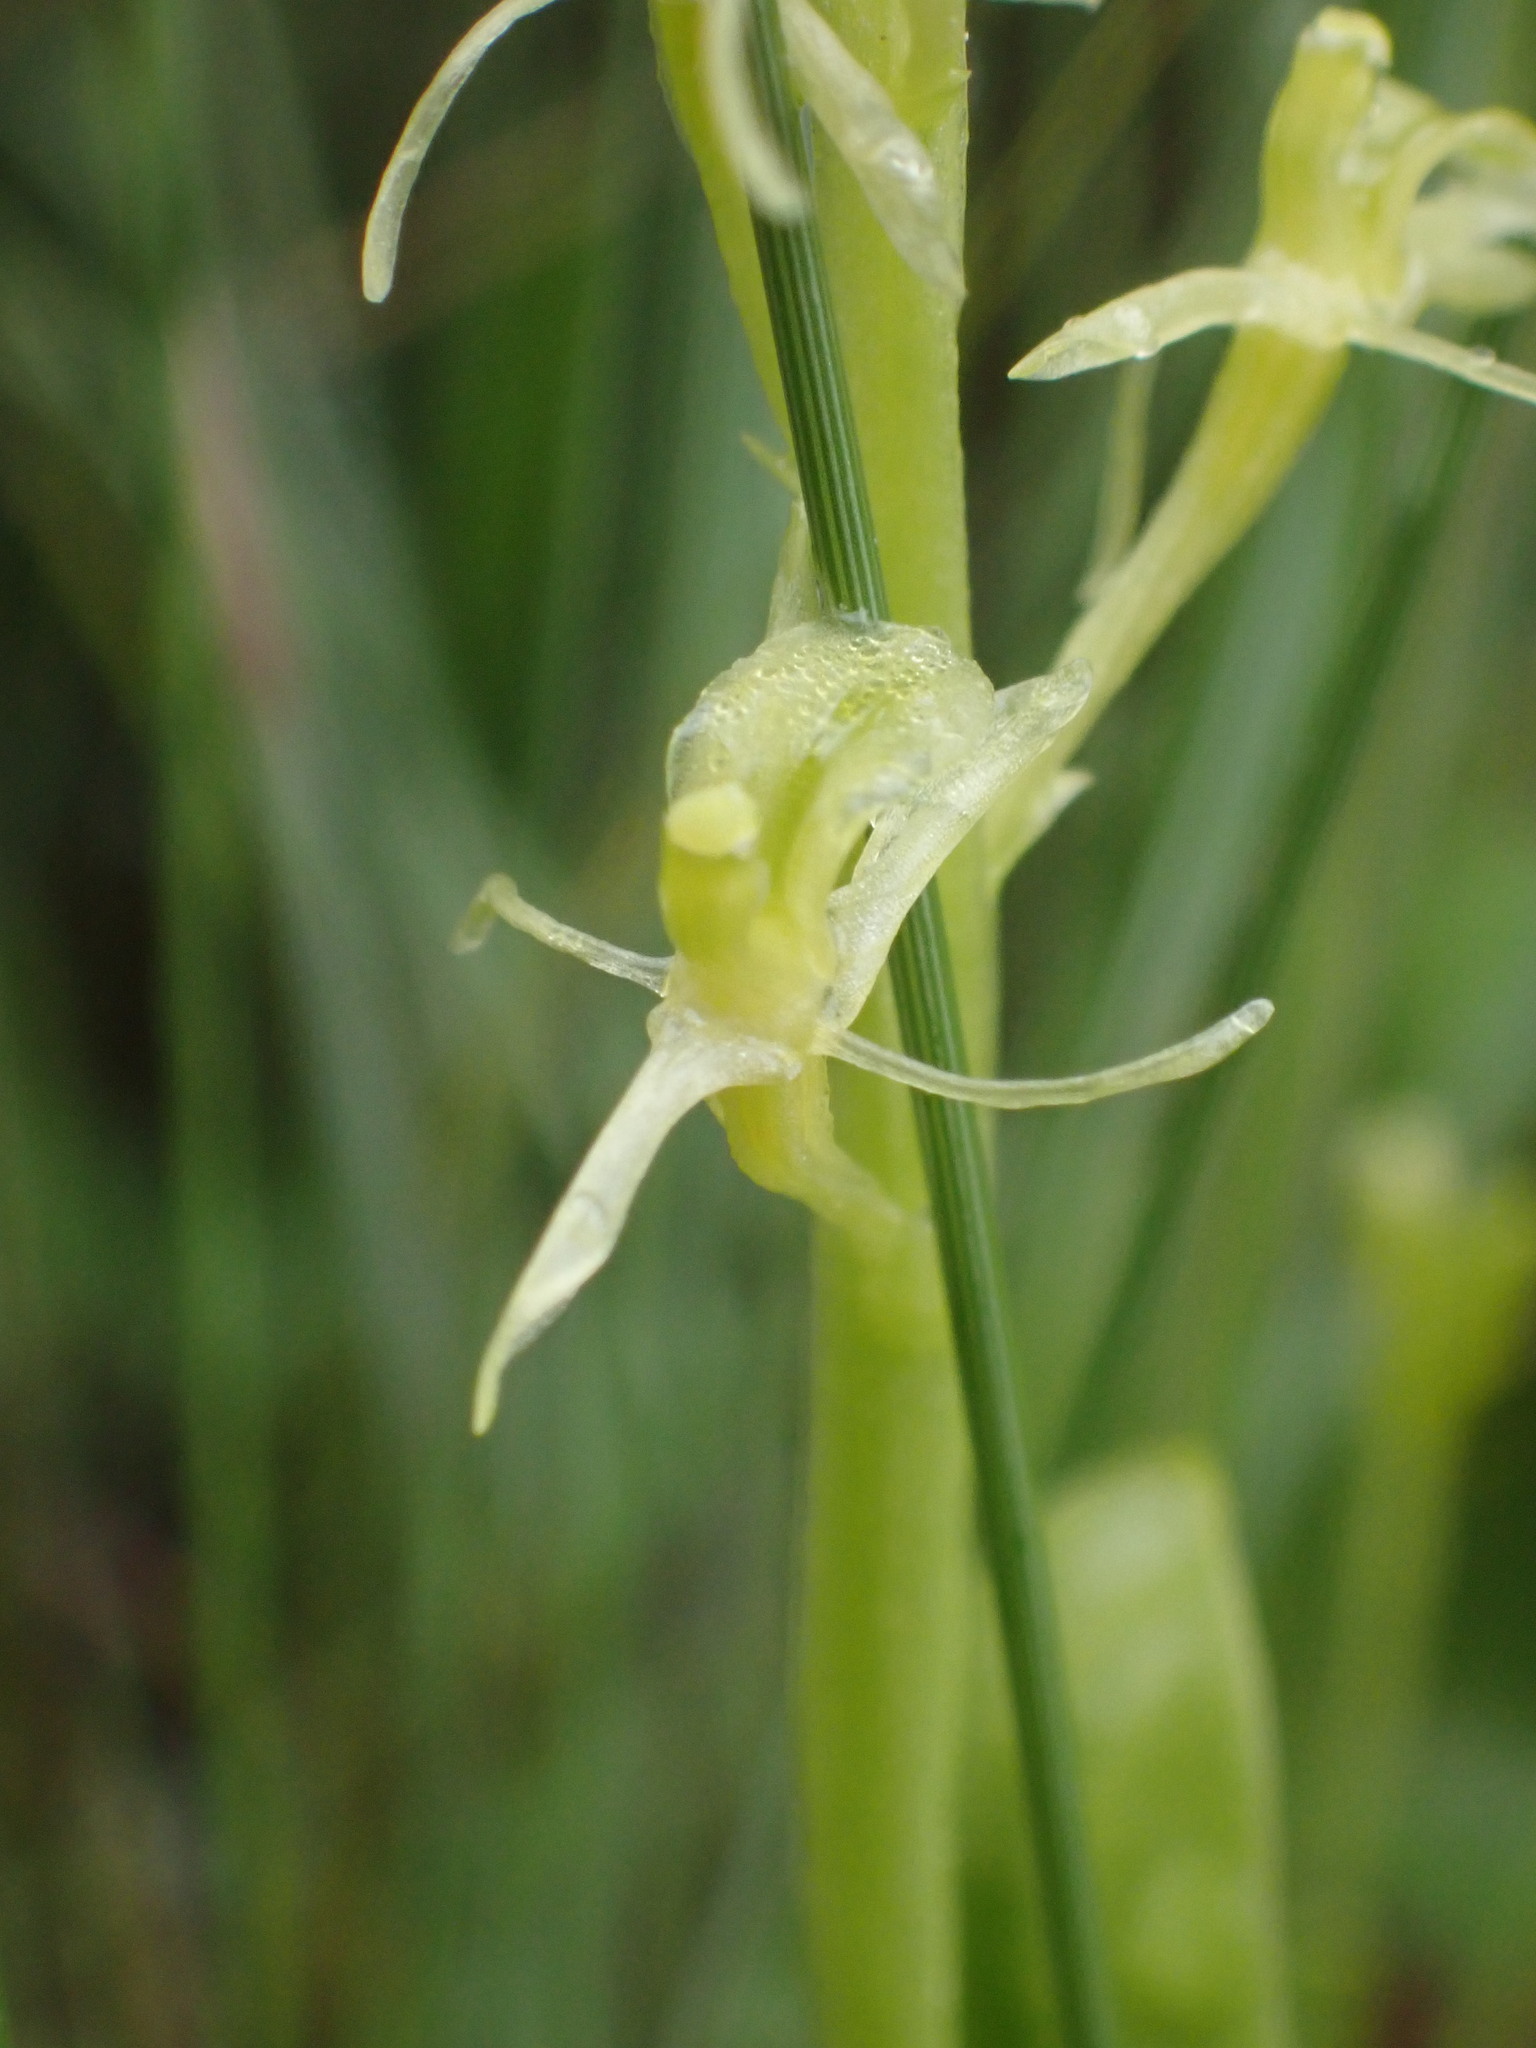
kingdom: Animalia
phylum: Arthropoda
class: Insecta
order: Coleoptera
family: Curculionidae
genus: Liparis
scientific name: Liparis loeselii
